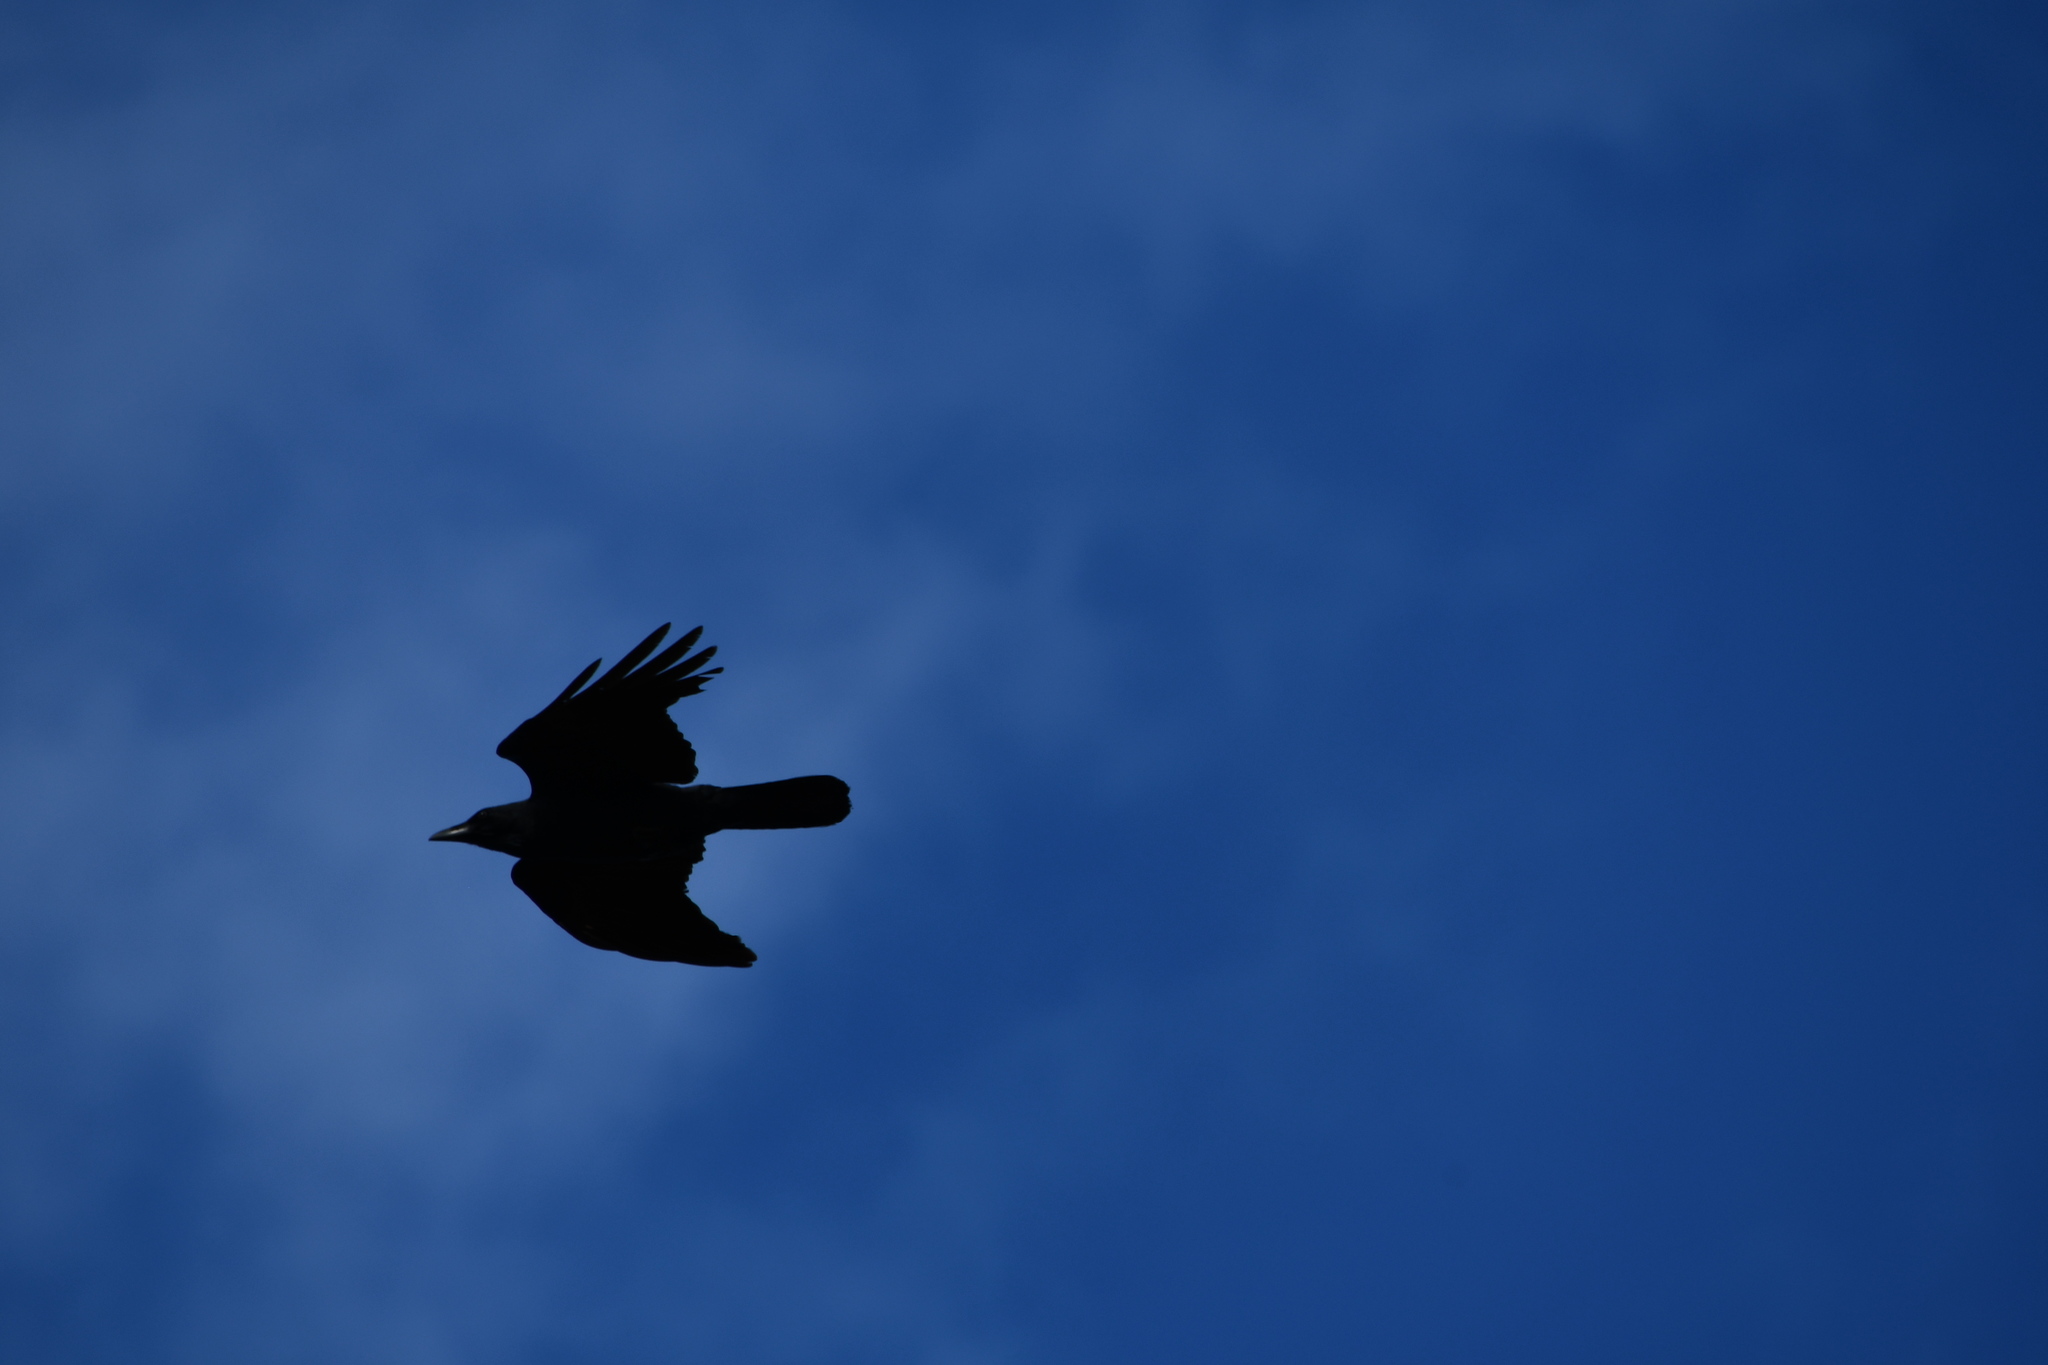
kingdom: Animalia
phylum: Chordata
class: Aves
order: Passeriformes
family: Corvidae
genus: Corvus
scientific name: Corvus coronoides
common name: Australian raven
